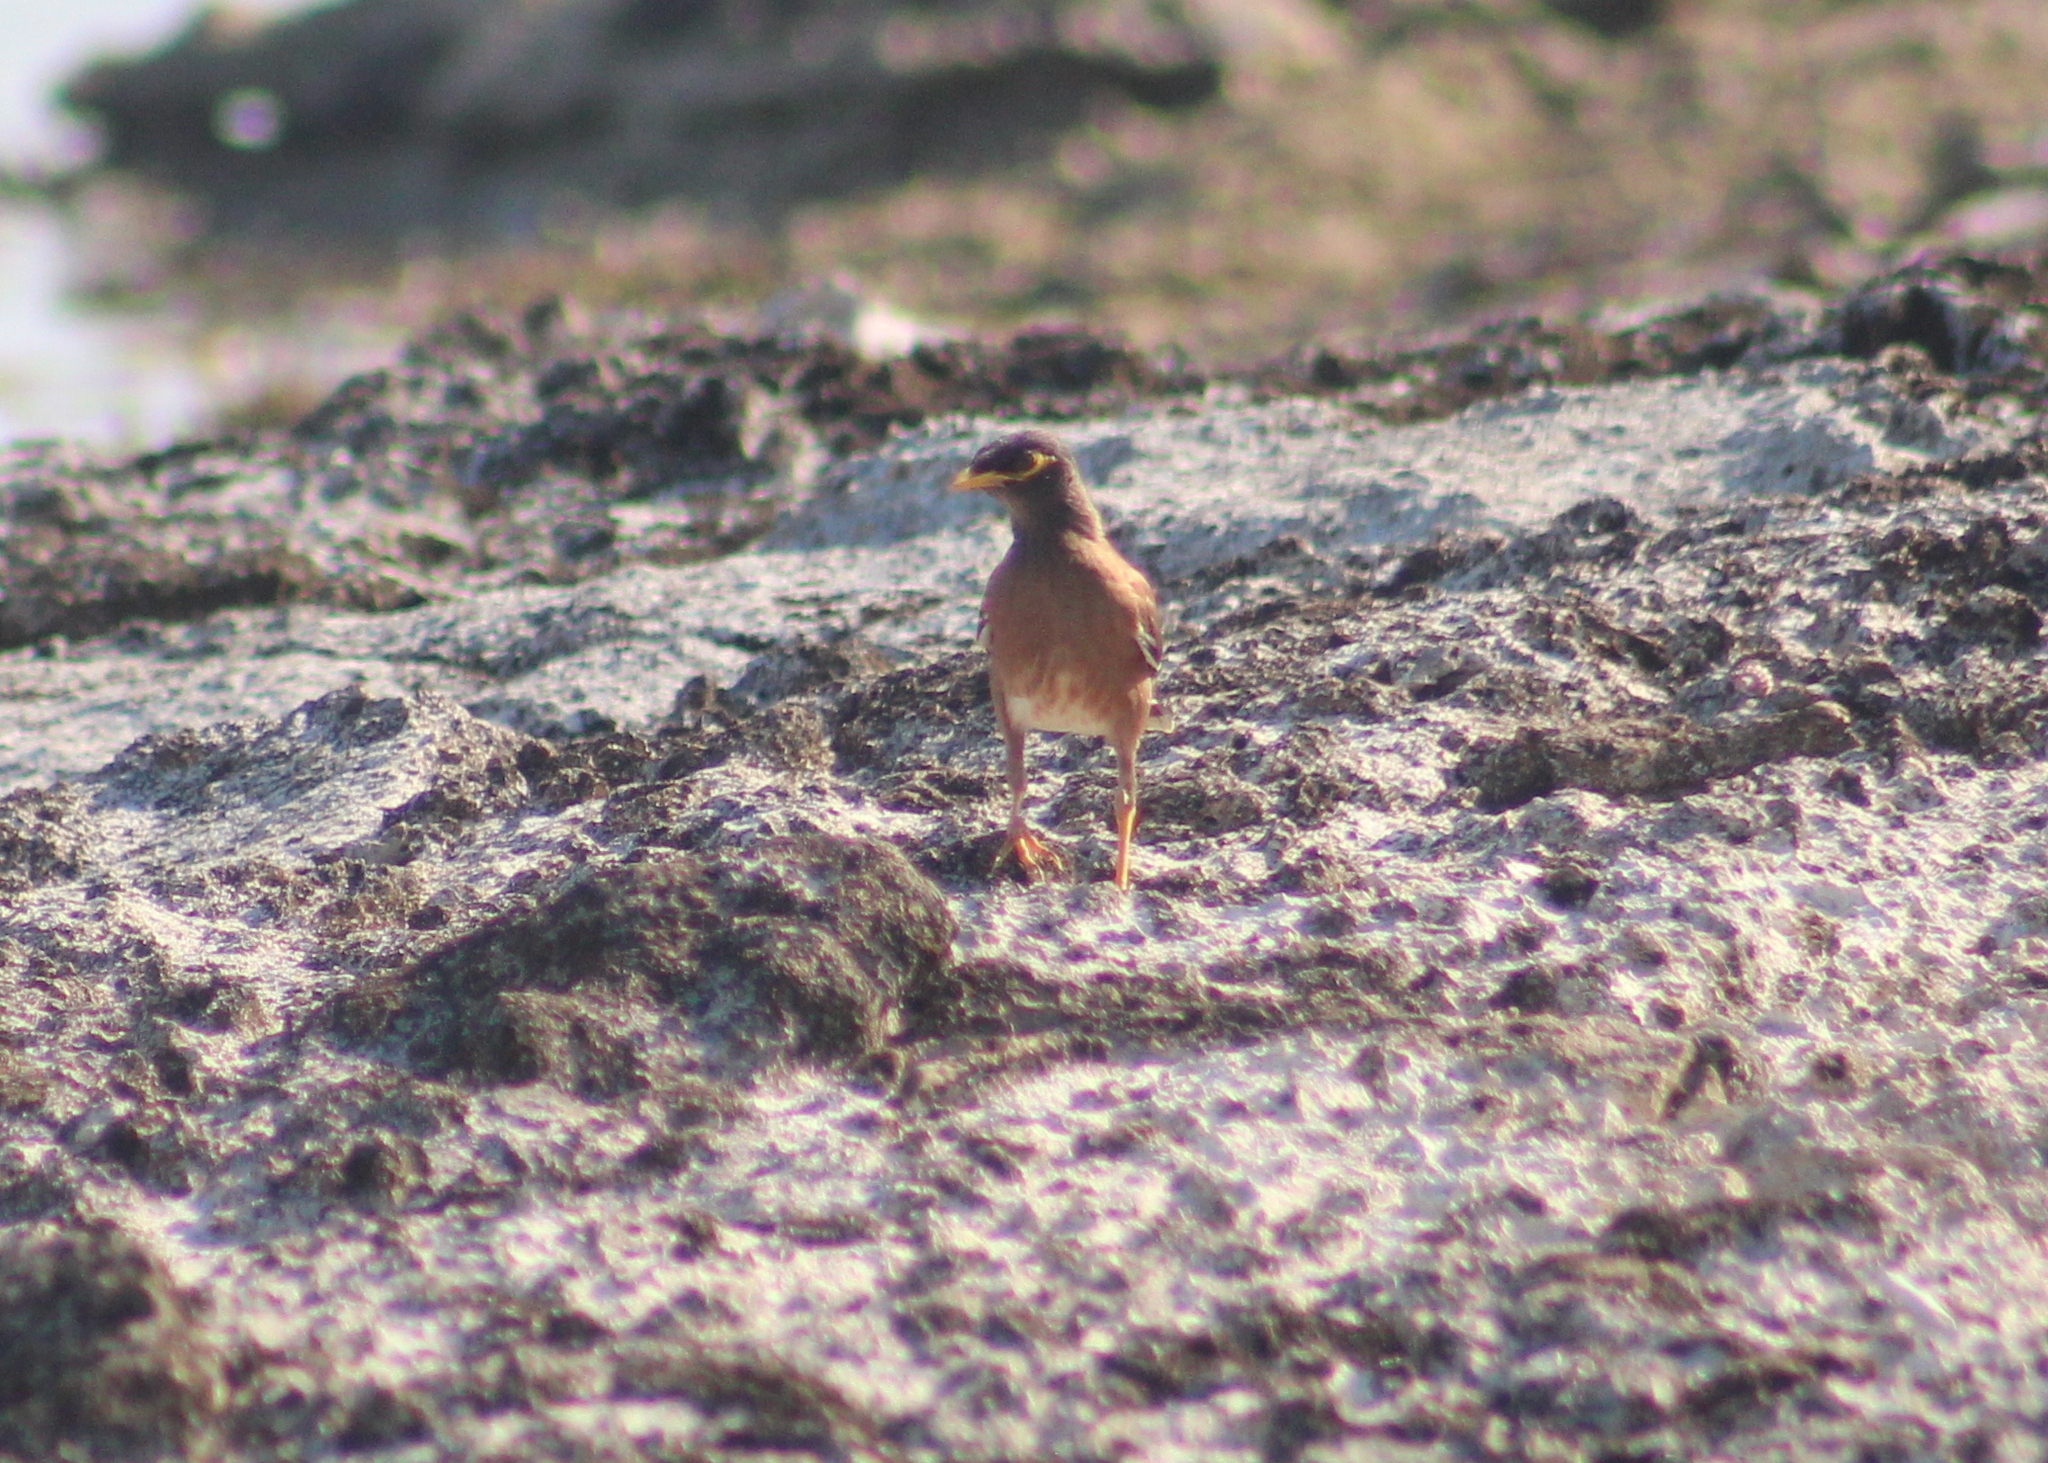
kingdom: Animalia
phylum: Chordata
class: Aves
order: Passeriformes
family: Sturnidae
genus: Acridotheres
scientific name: Acridotheres tristis
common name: Common myna
